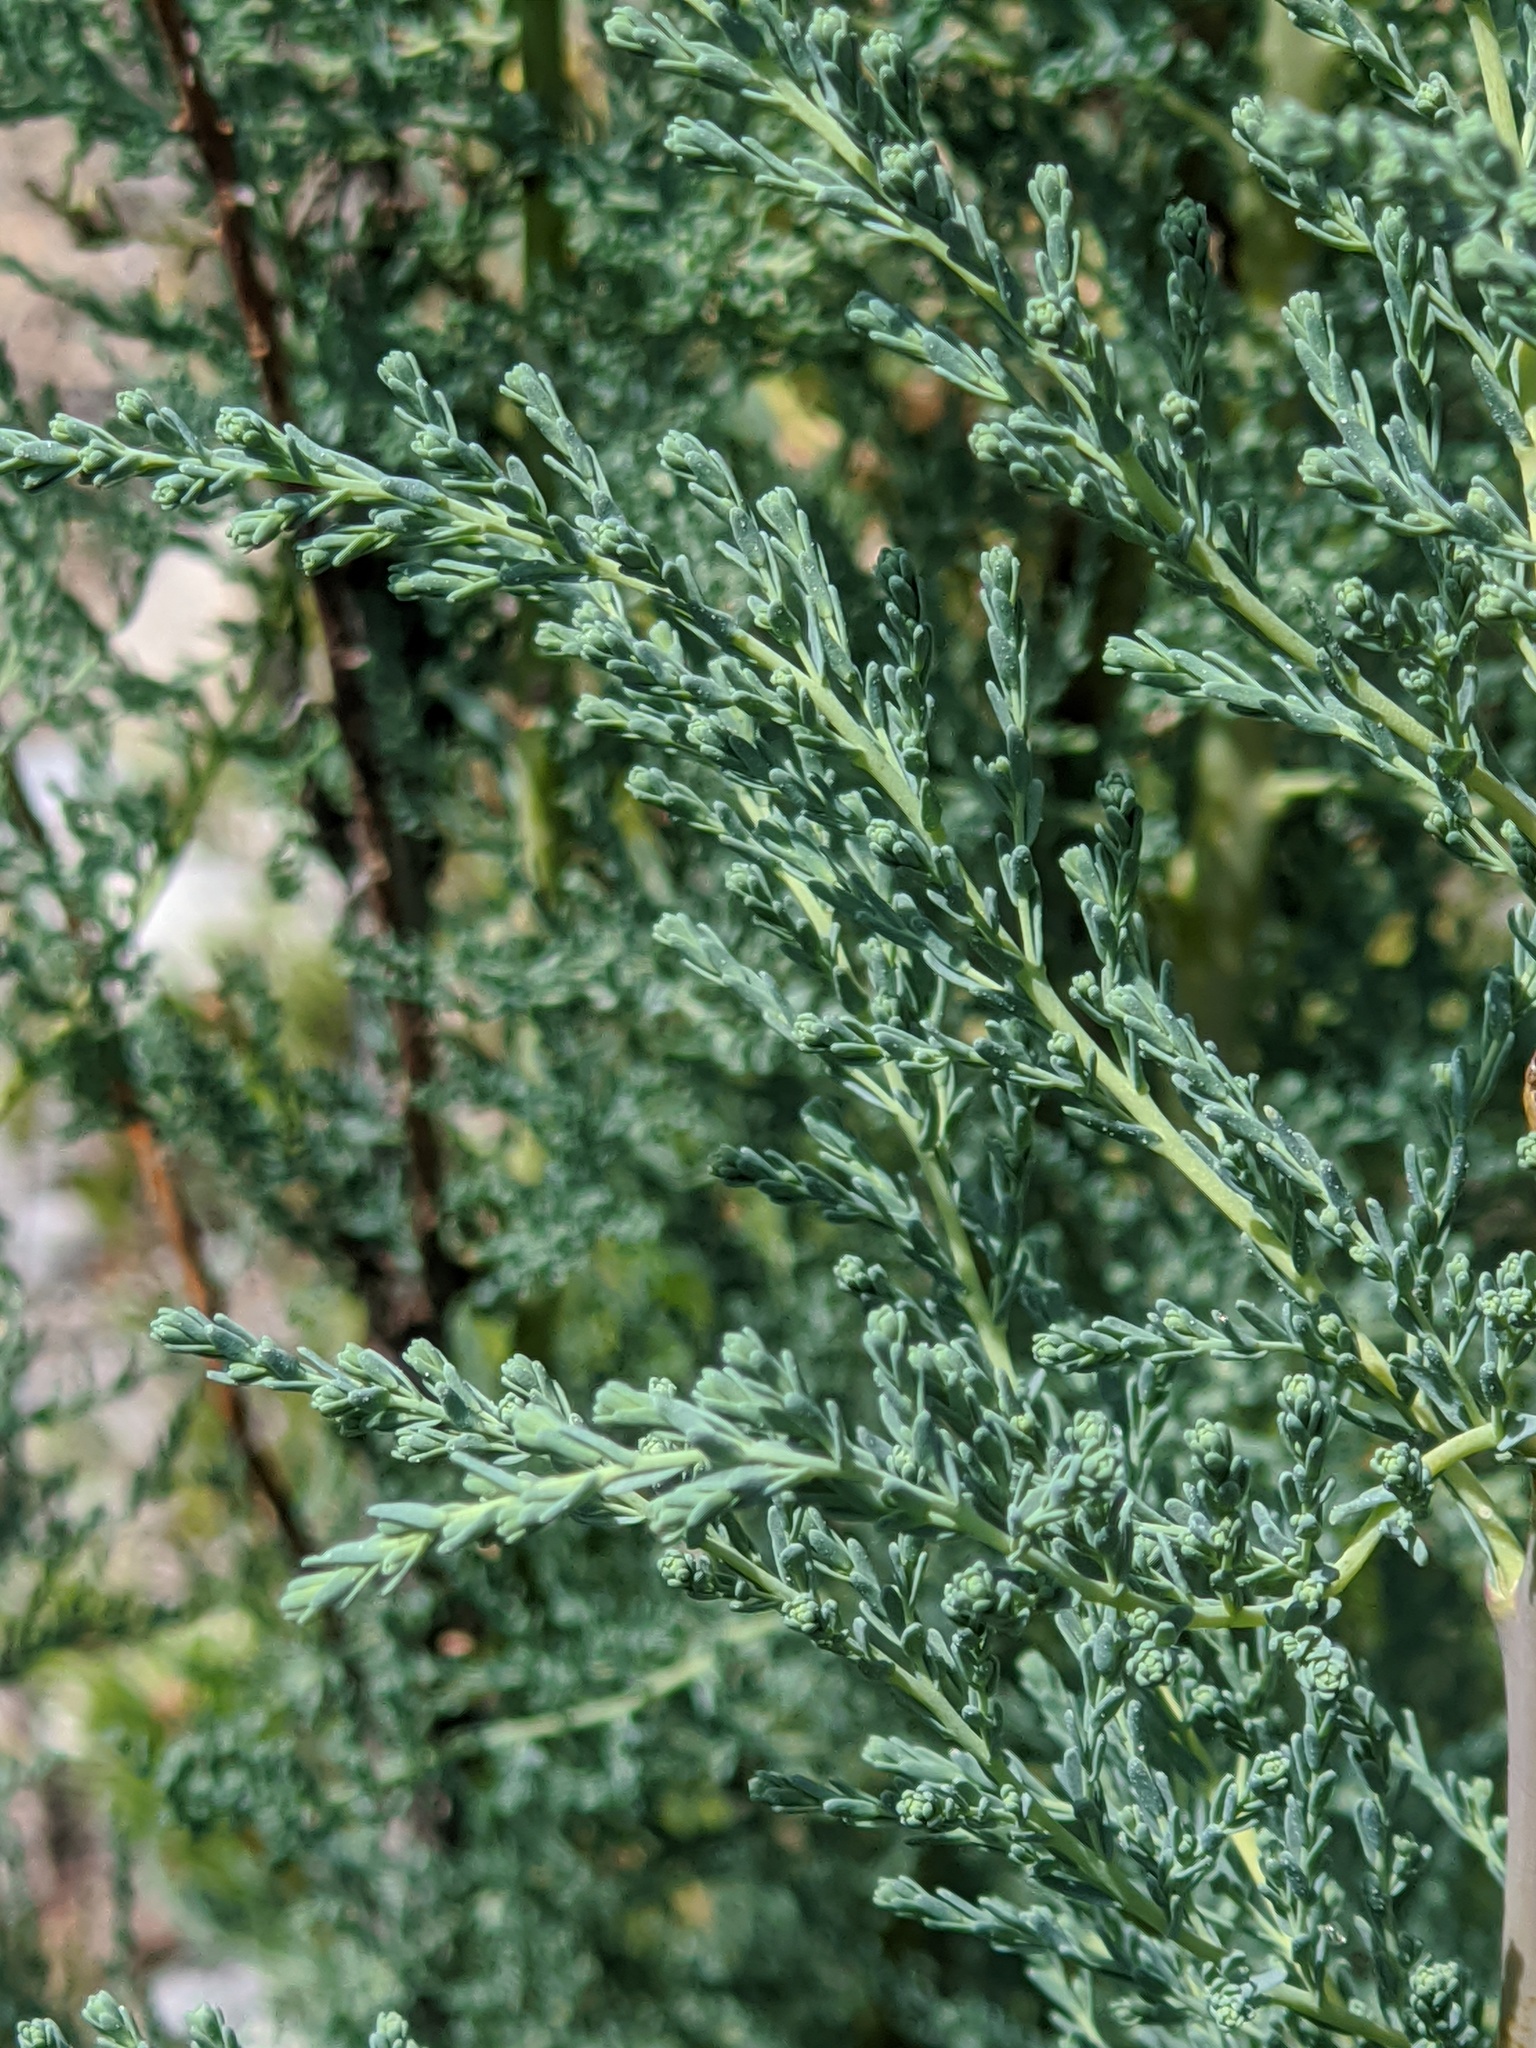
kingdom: Plantae
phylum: Tracheophyta
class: Magnoliopsida
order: Caryophyllales
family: Tamaricaceae
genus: Myricaria
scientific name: Myricaria germanica
